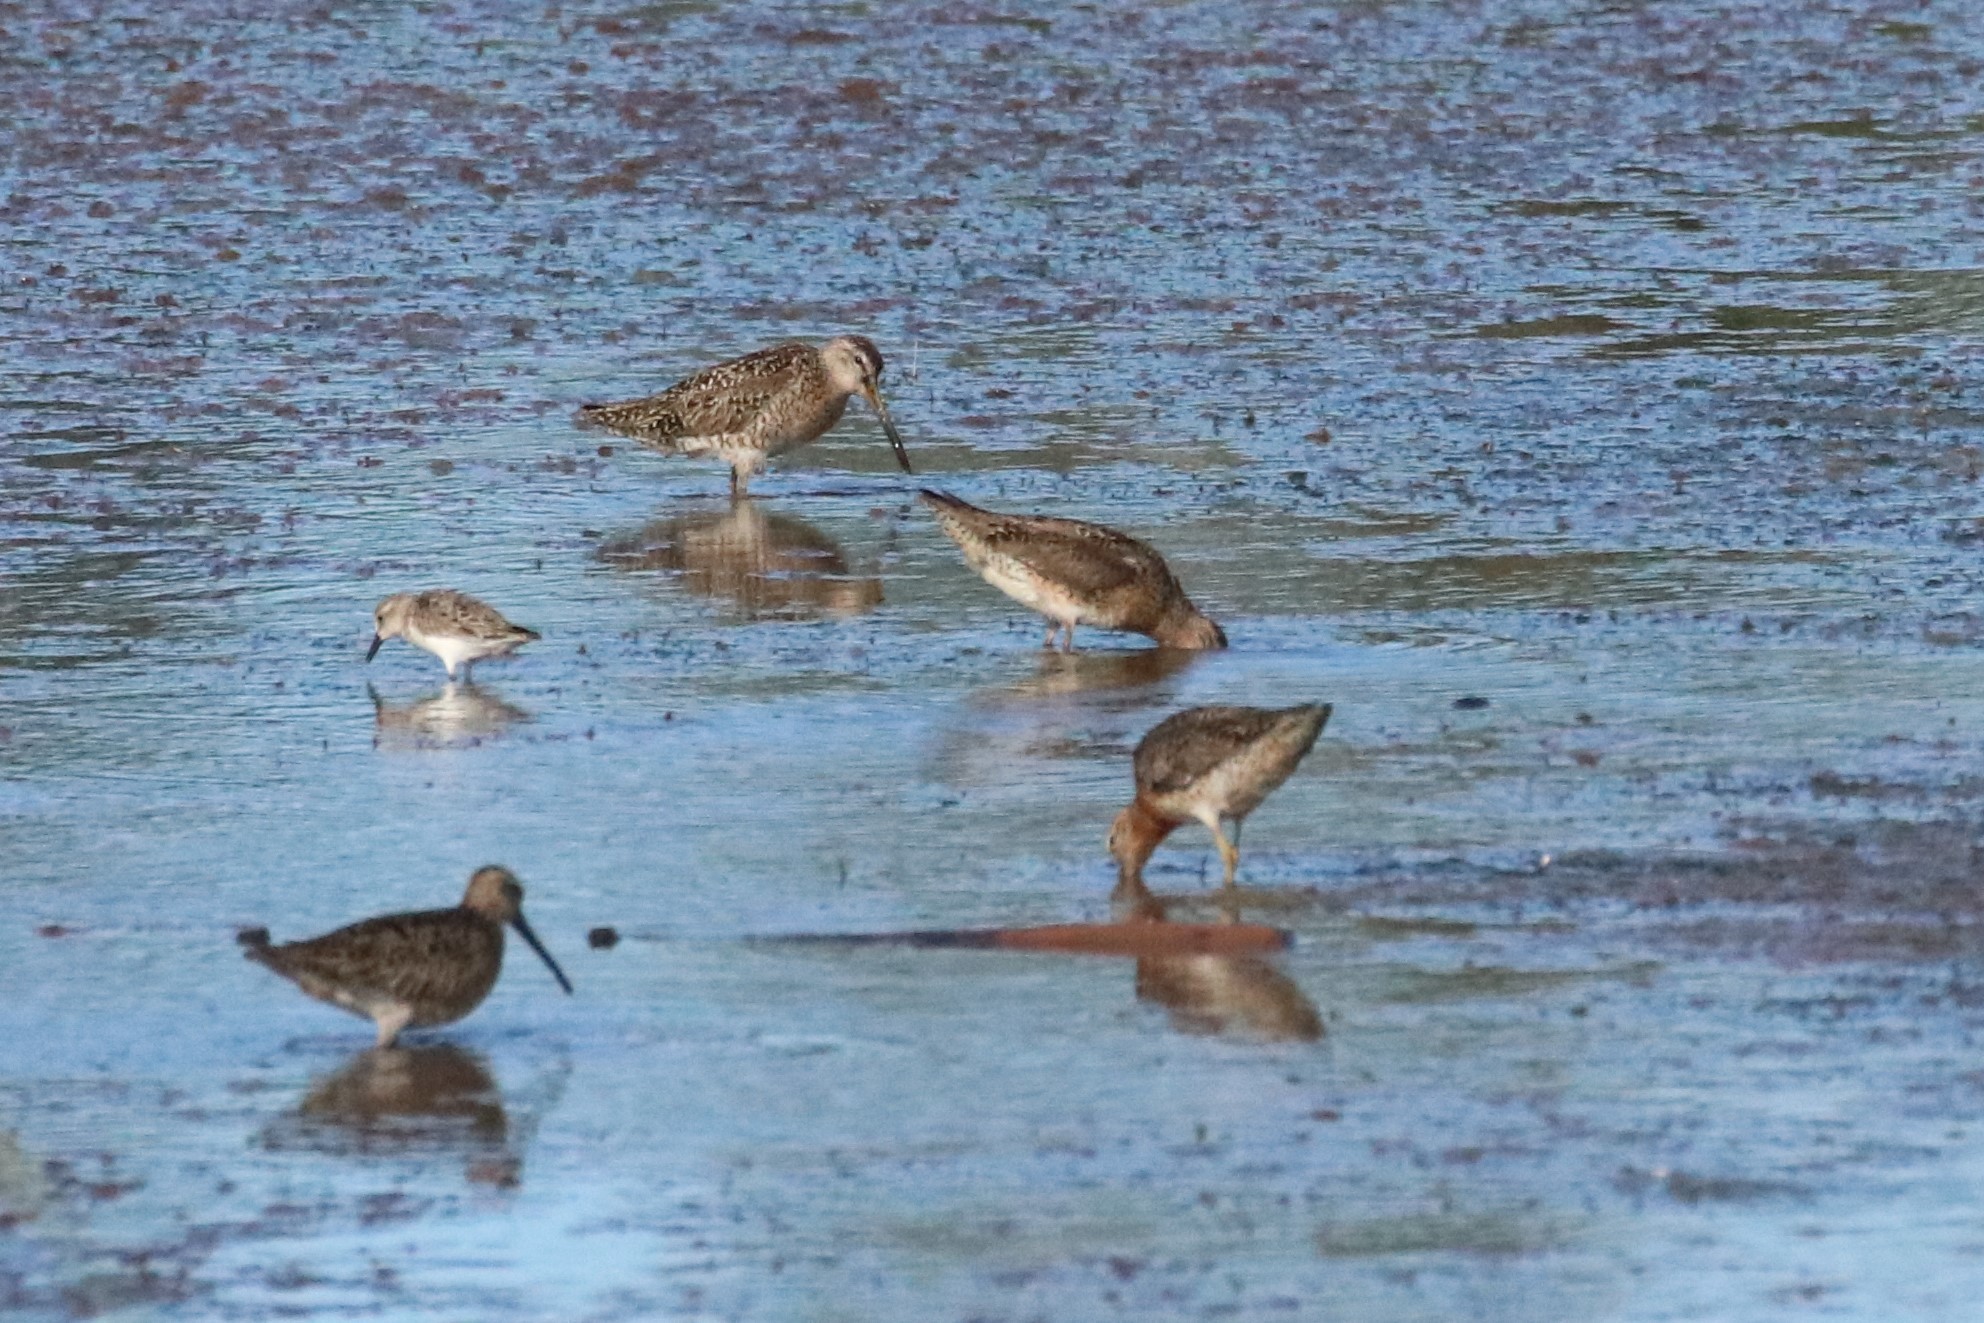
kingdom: Animalia
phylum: Chordata
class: Aves
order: Charadriiformes
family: Scolopacidae
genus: Limnodromus
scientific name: Limnodromus griseus
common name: Short-billed dowitcher
